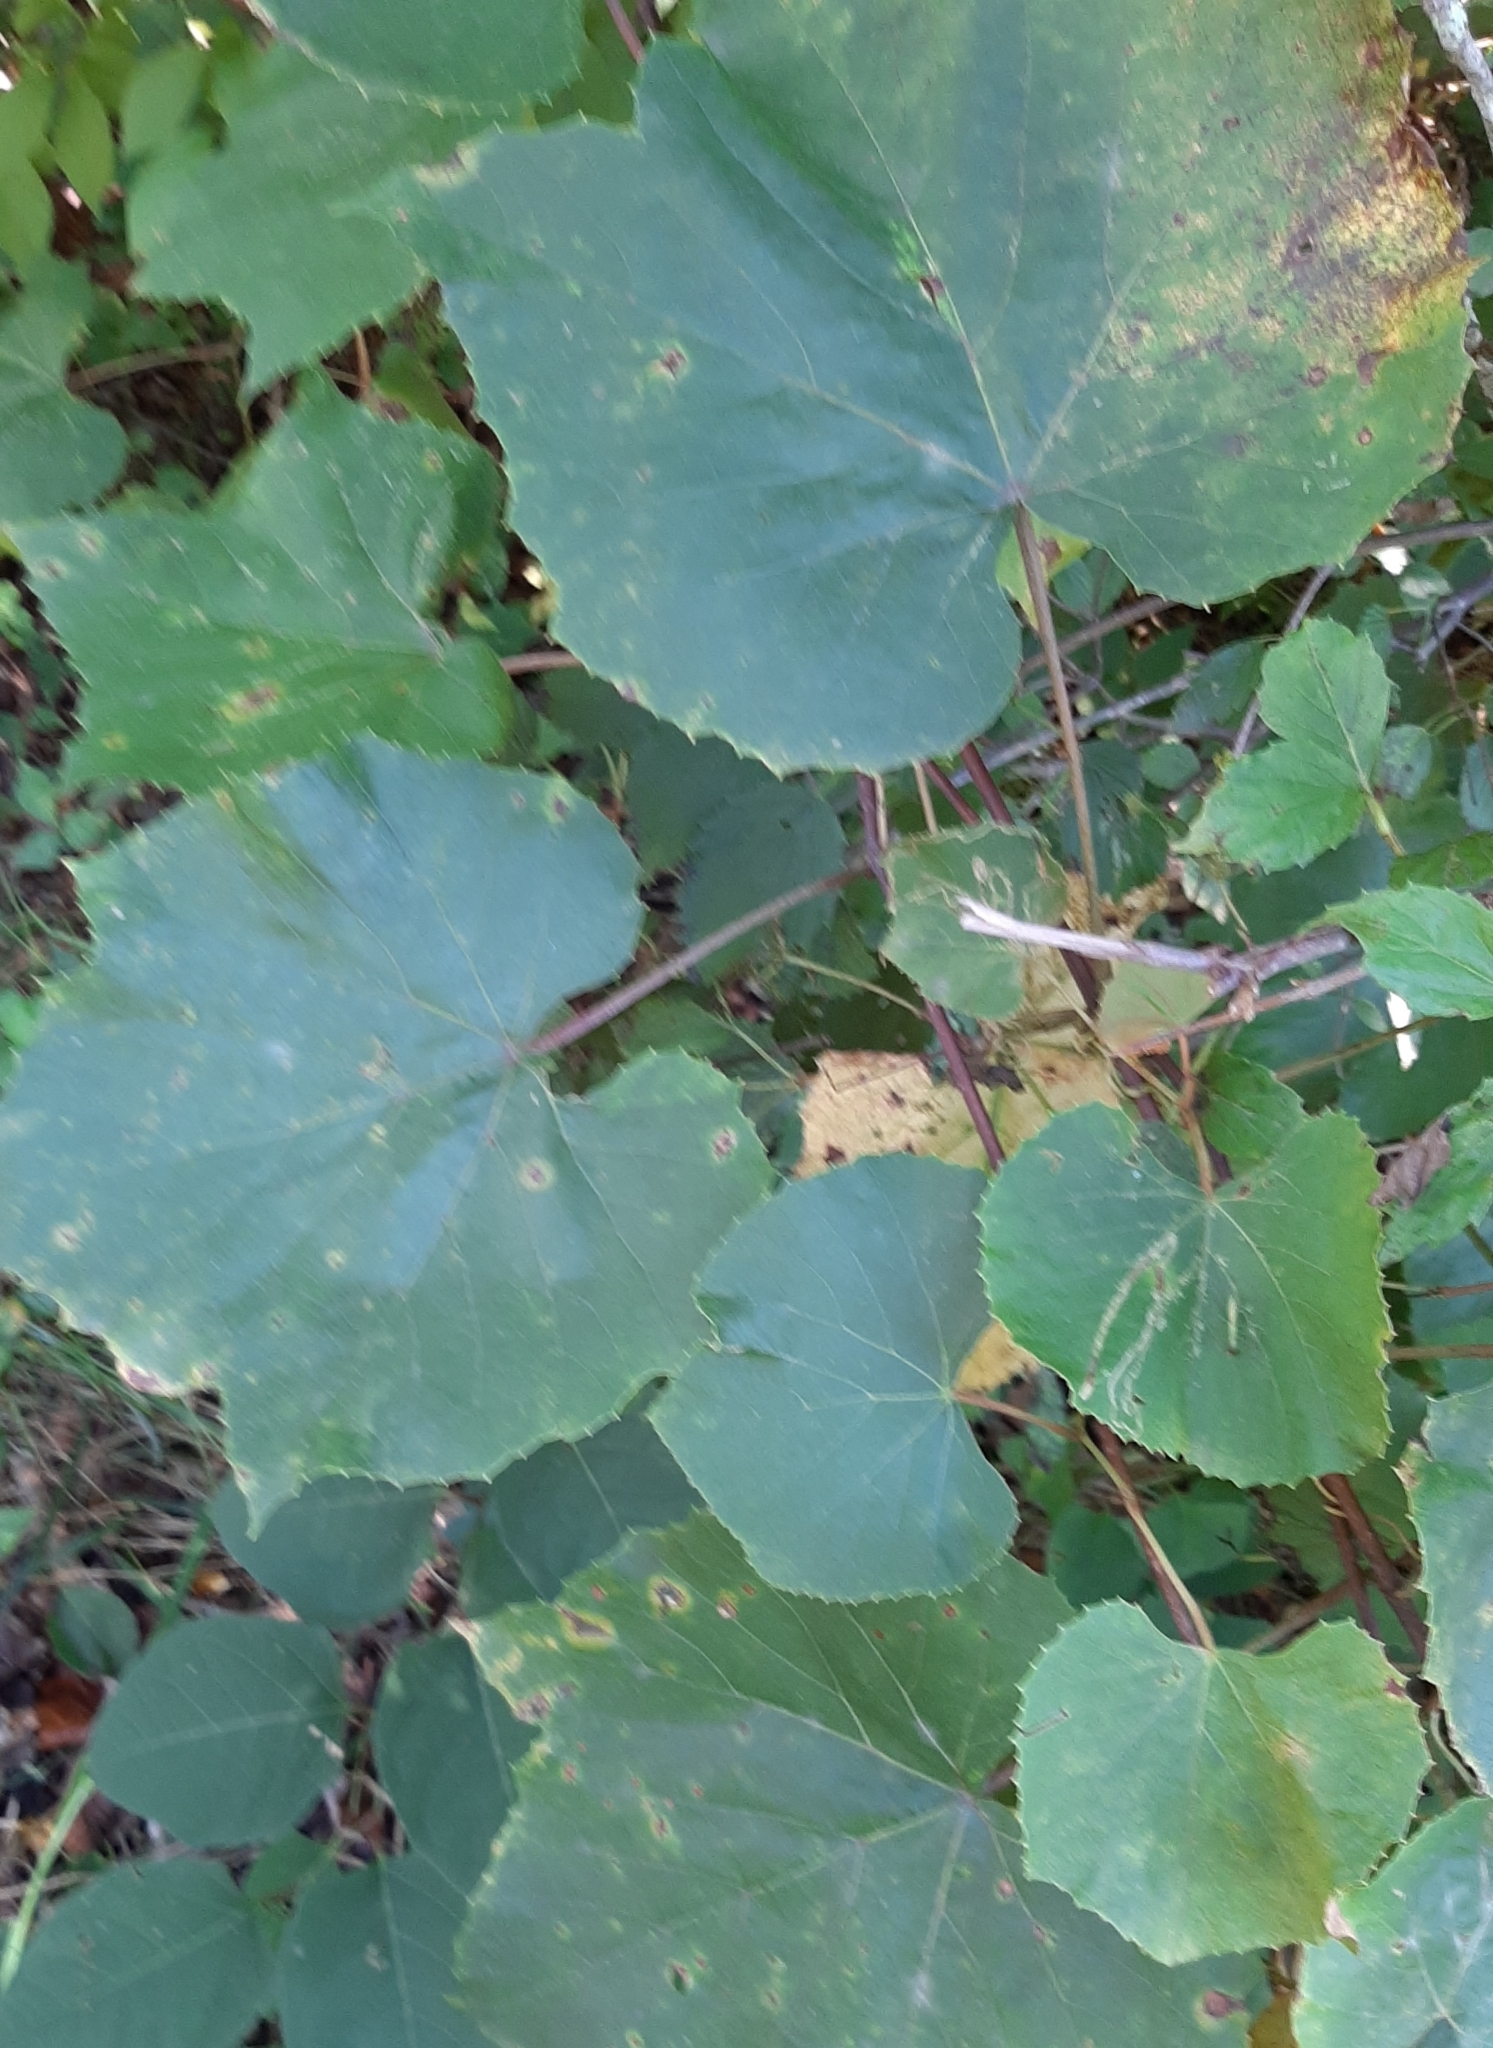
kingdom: Animalia
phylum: Arthropoda
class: Insecta
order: Lepidoptera
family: Gracillariidae
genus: Phyllocnistis
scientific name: Phyllocnistis vitifoliella
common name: Grape leaf-miner moth
